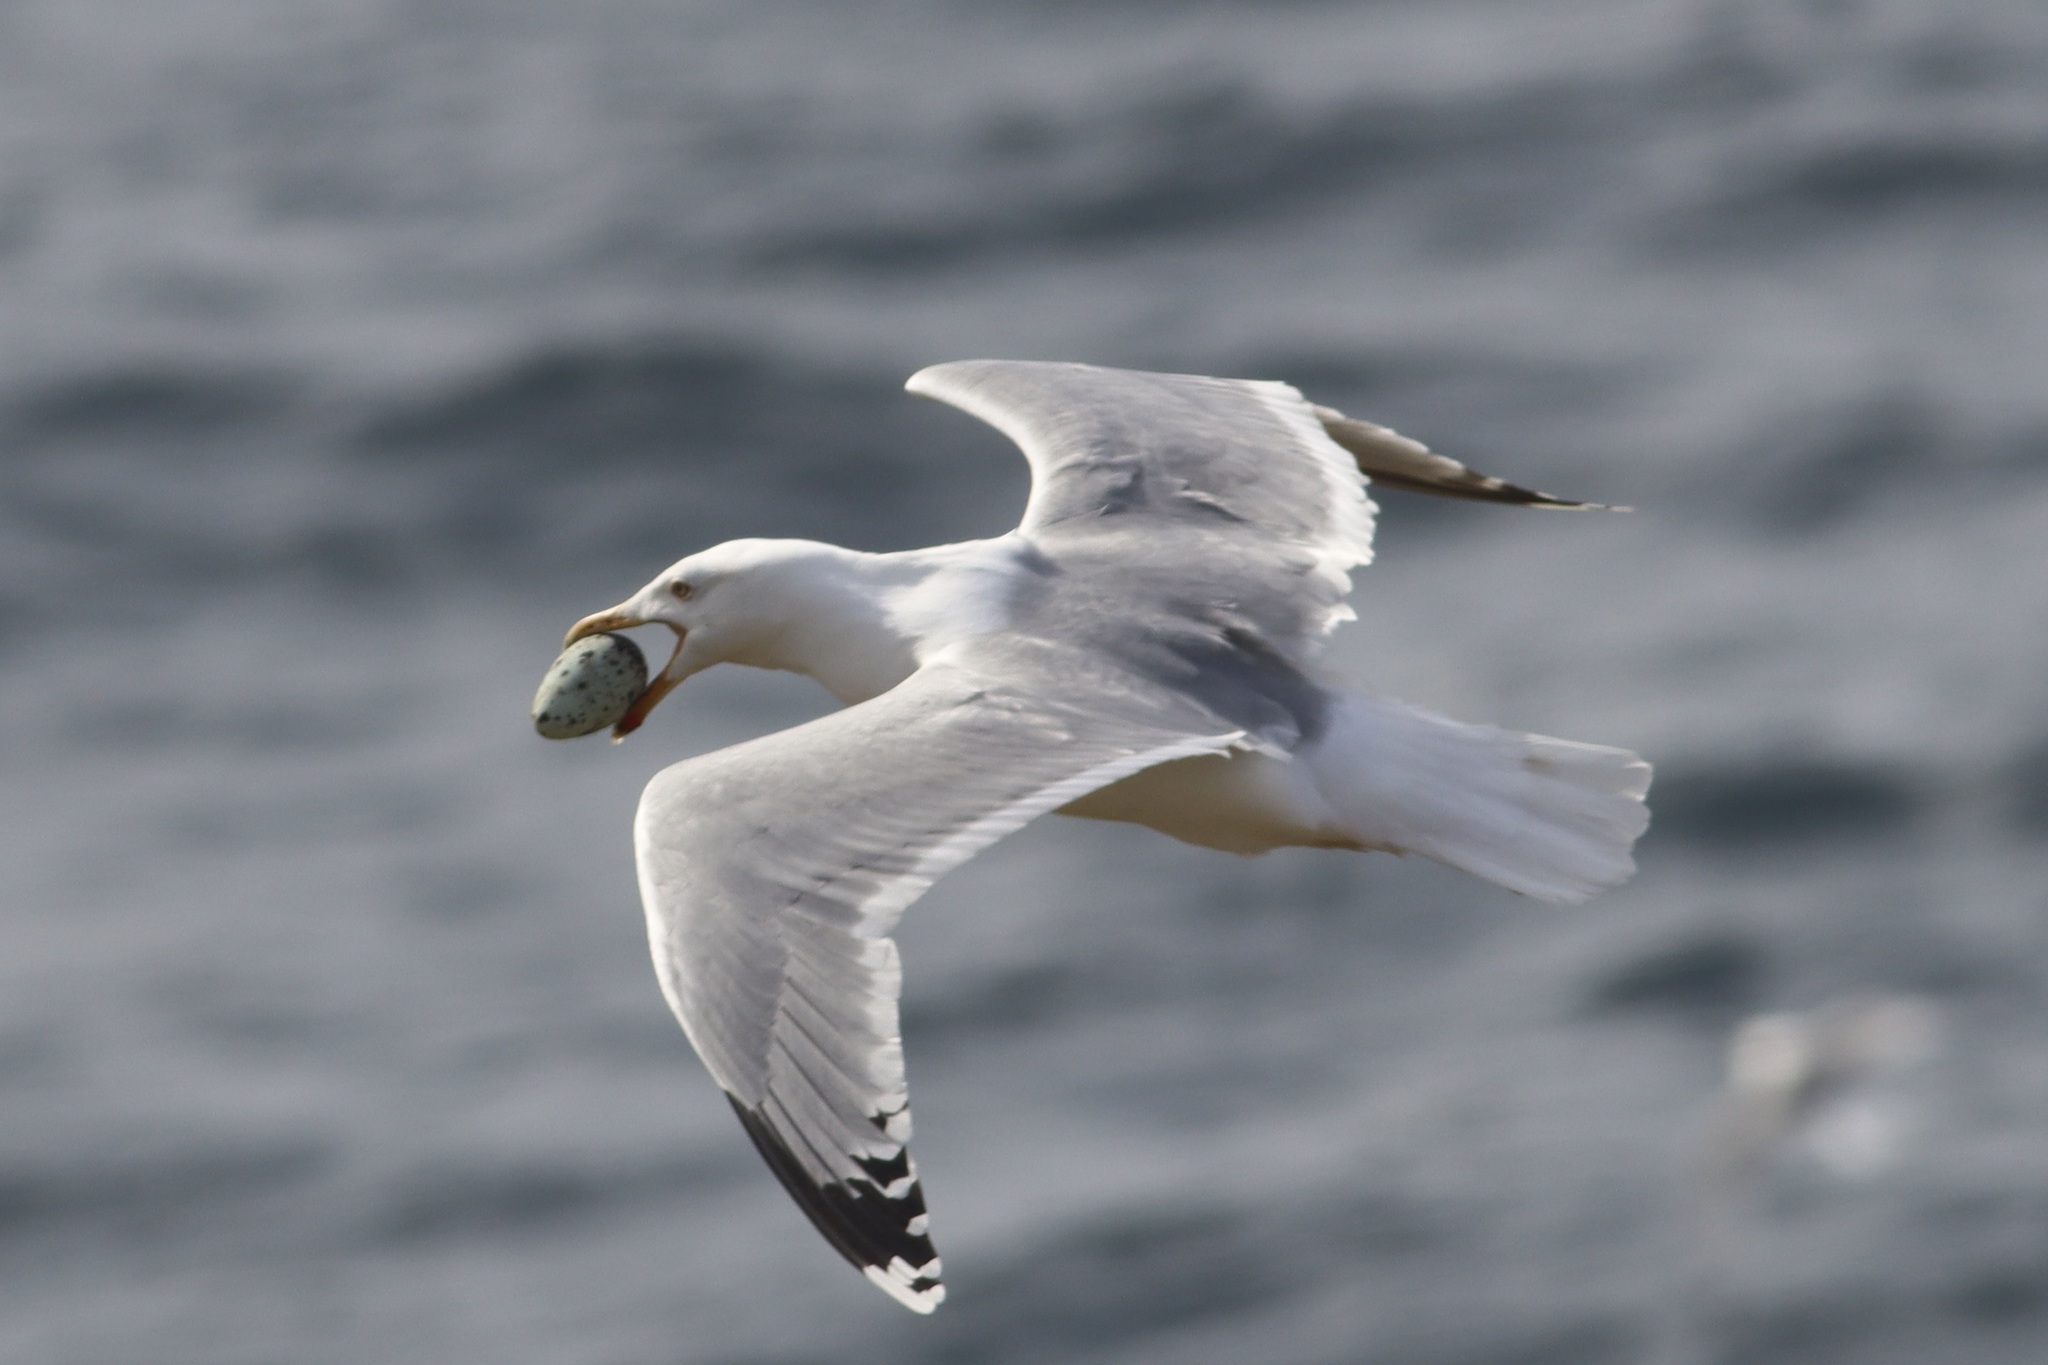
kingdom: Animalia
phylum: Chordata
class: Aves
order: Charadriiformes
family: Laridae
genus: Larus
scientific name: Larus argentatus
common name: Herring gull
